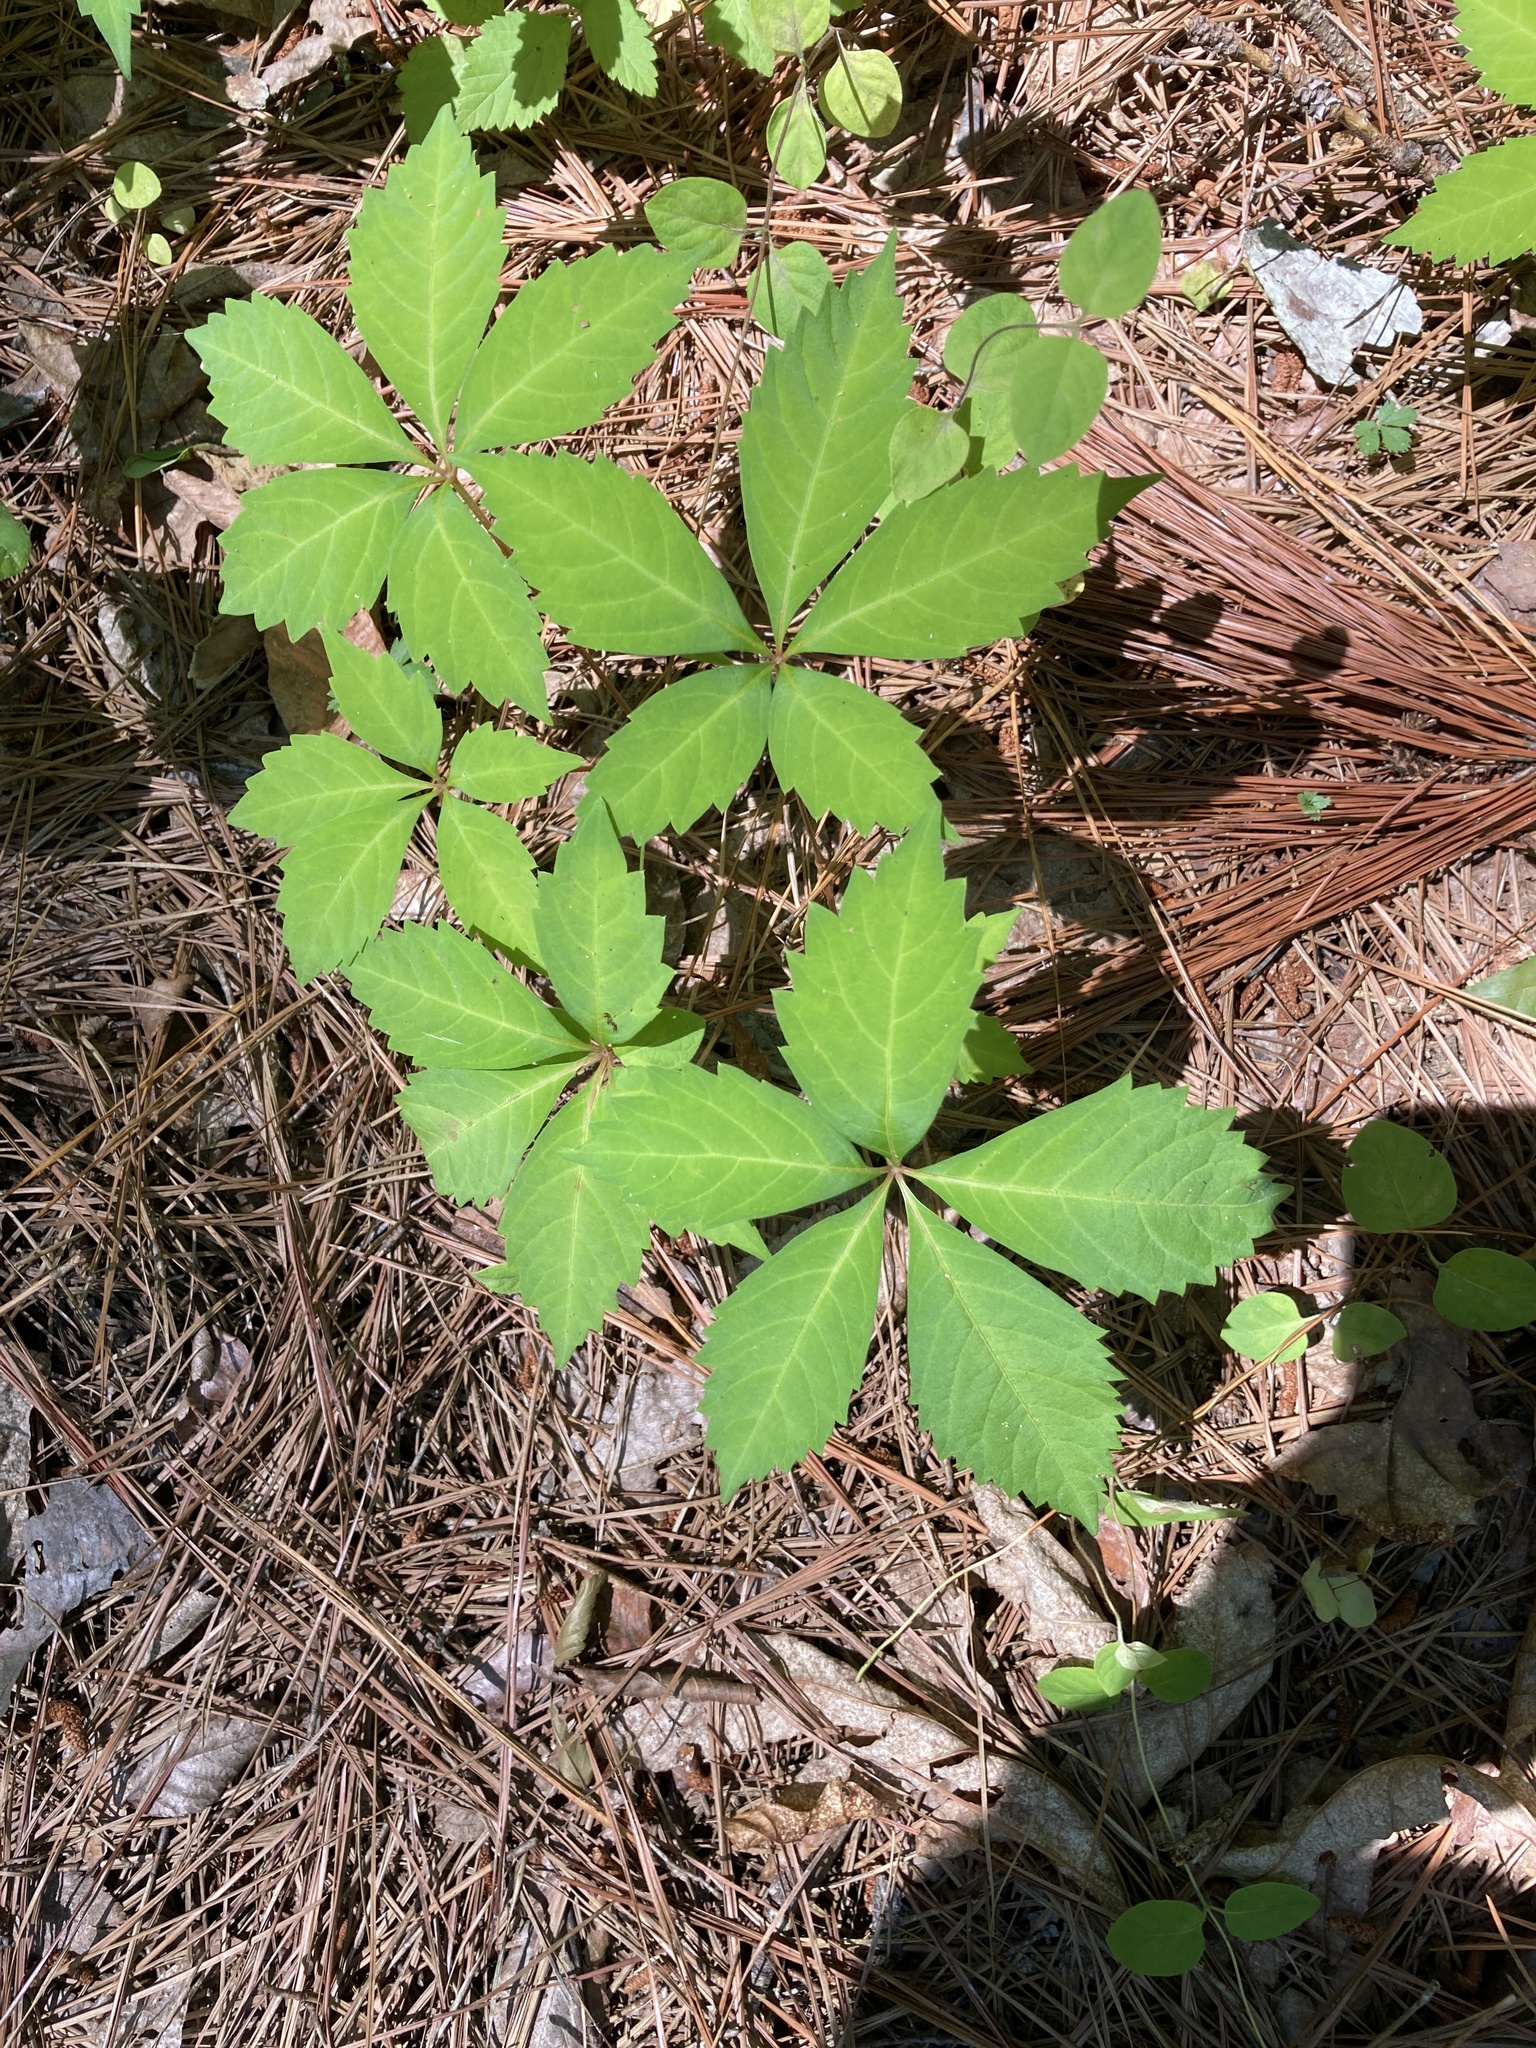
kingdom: Plantae
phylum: Tracheophyta
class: Magnoliopsida
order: Vitales
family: Vitaceae
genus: Parthenocissus
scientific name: Parthenocissus quinquefolia
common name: Virginia-creeper
